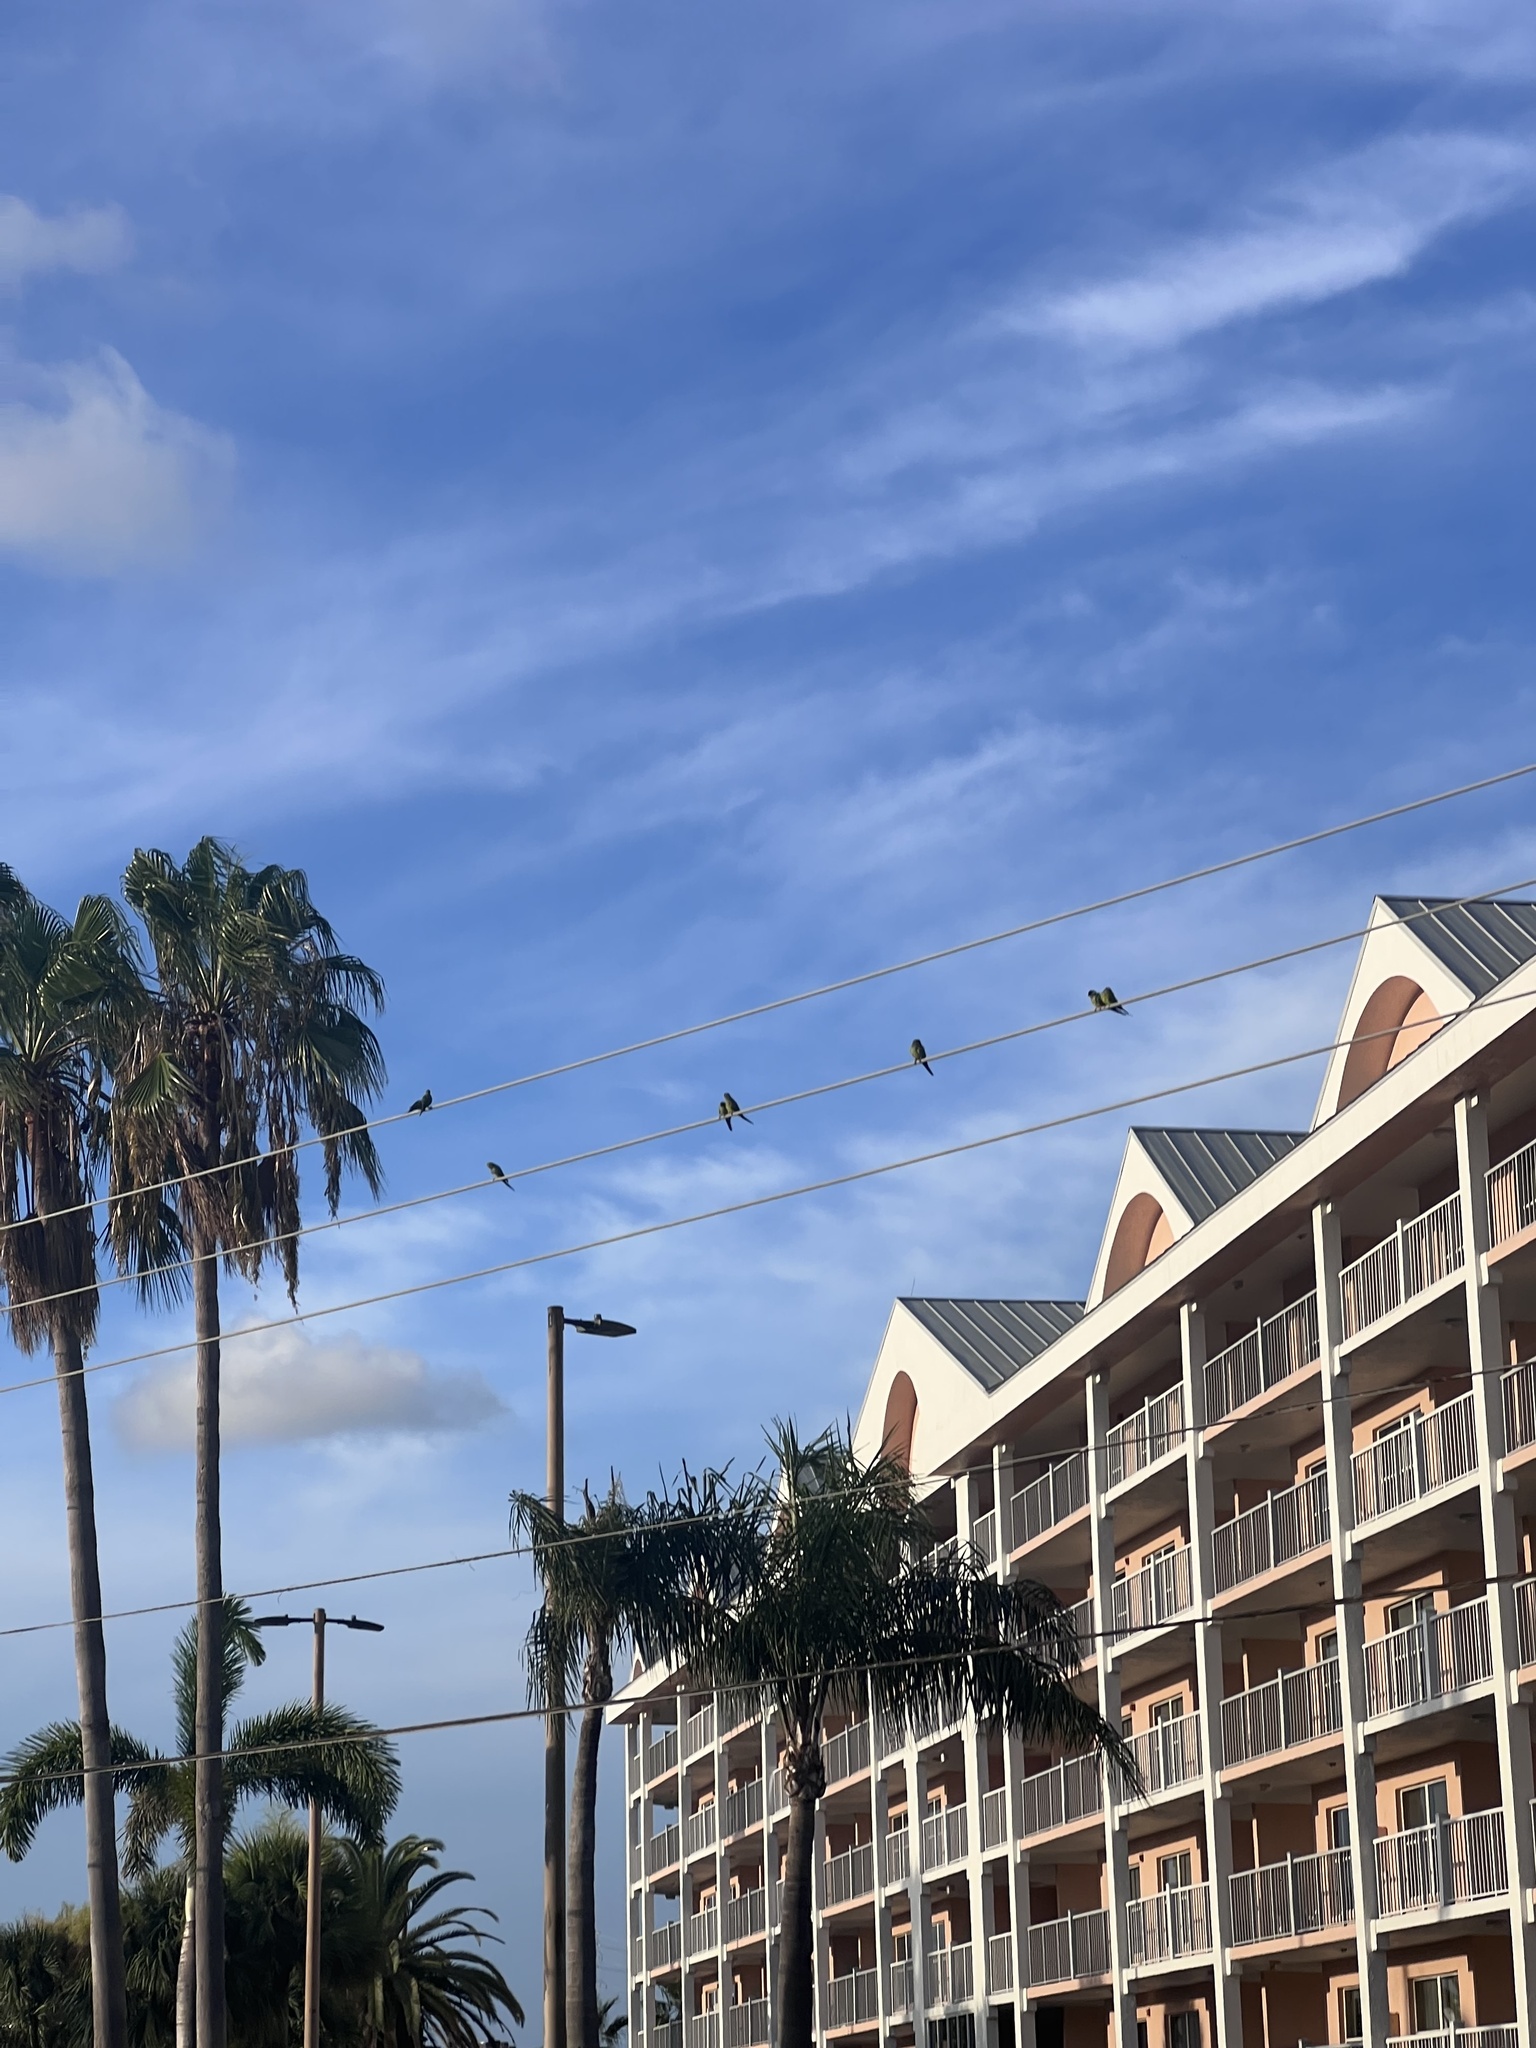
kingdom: Animalia
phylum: Chordata
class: Aves
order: Psittaciformes
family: Psittacidae
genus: Nandayus
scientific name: Nandayus nenday
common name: Nanday parakeet
